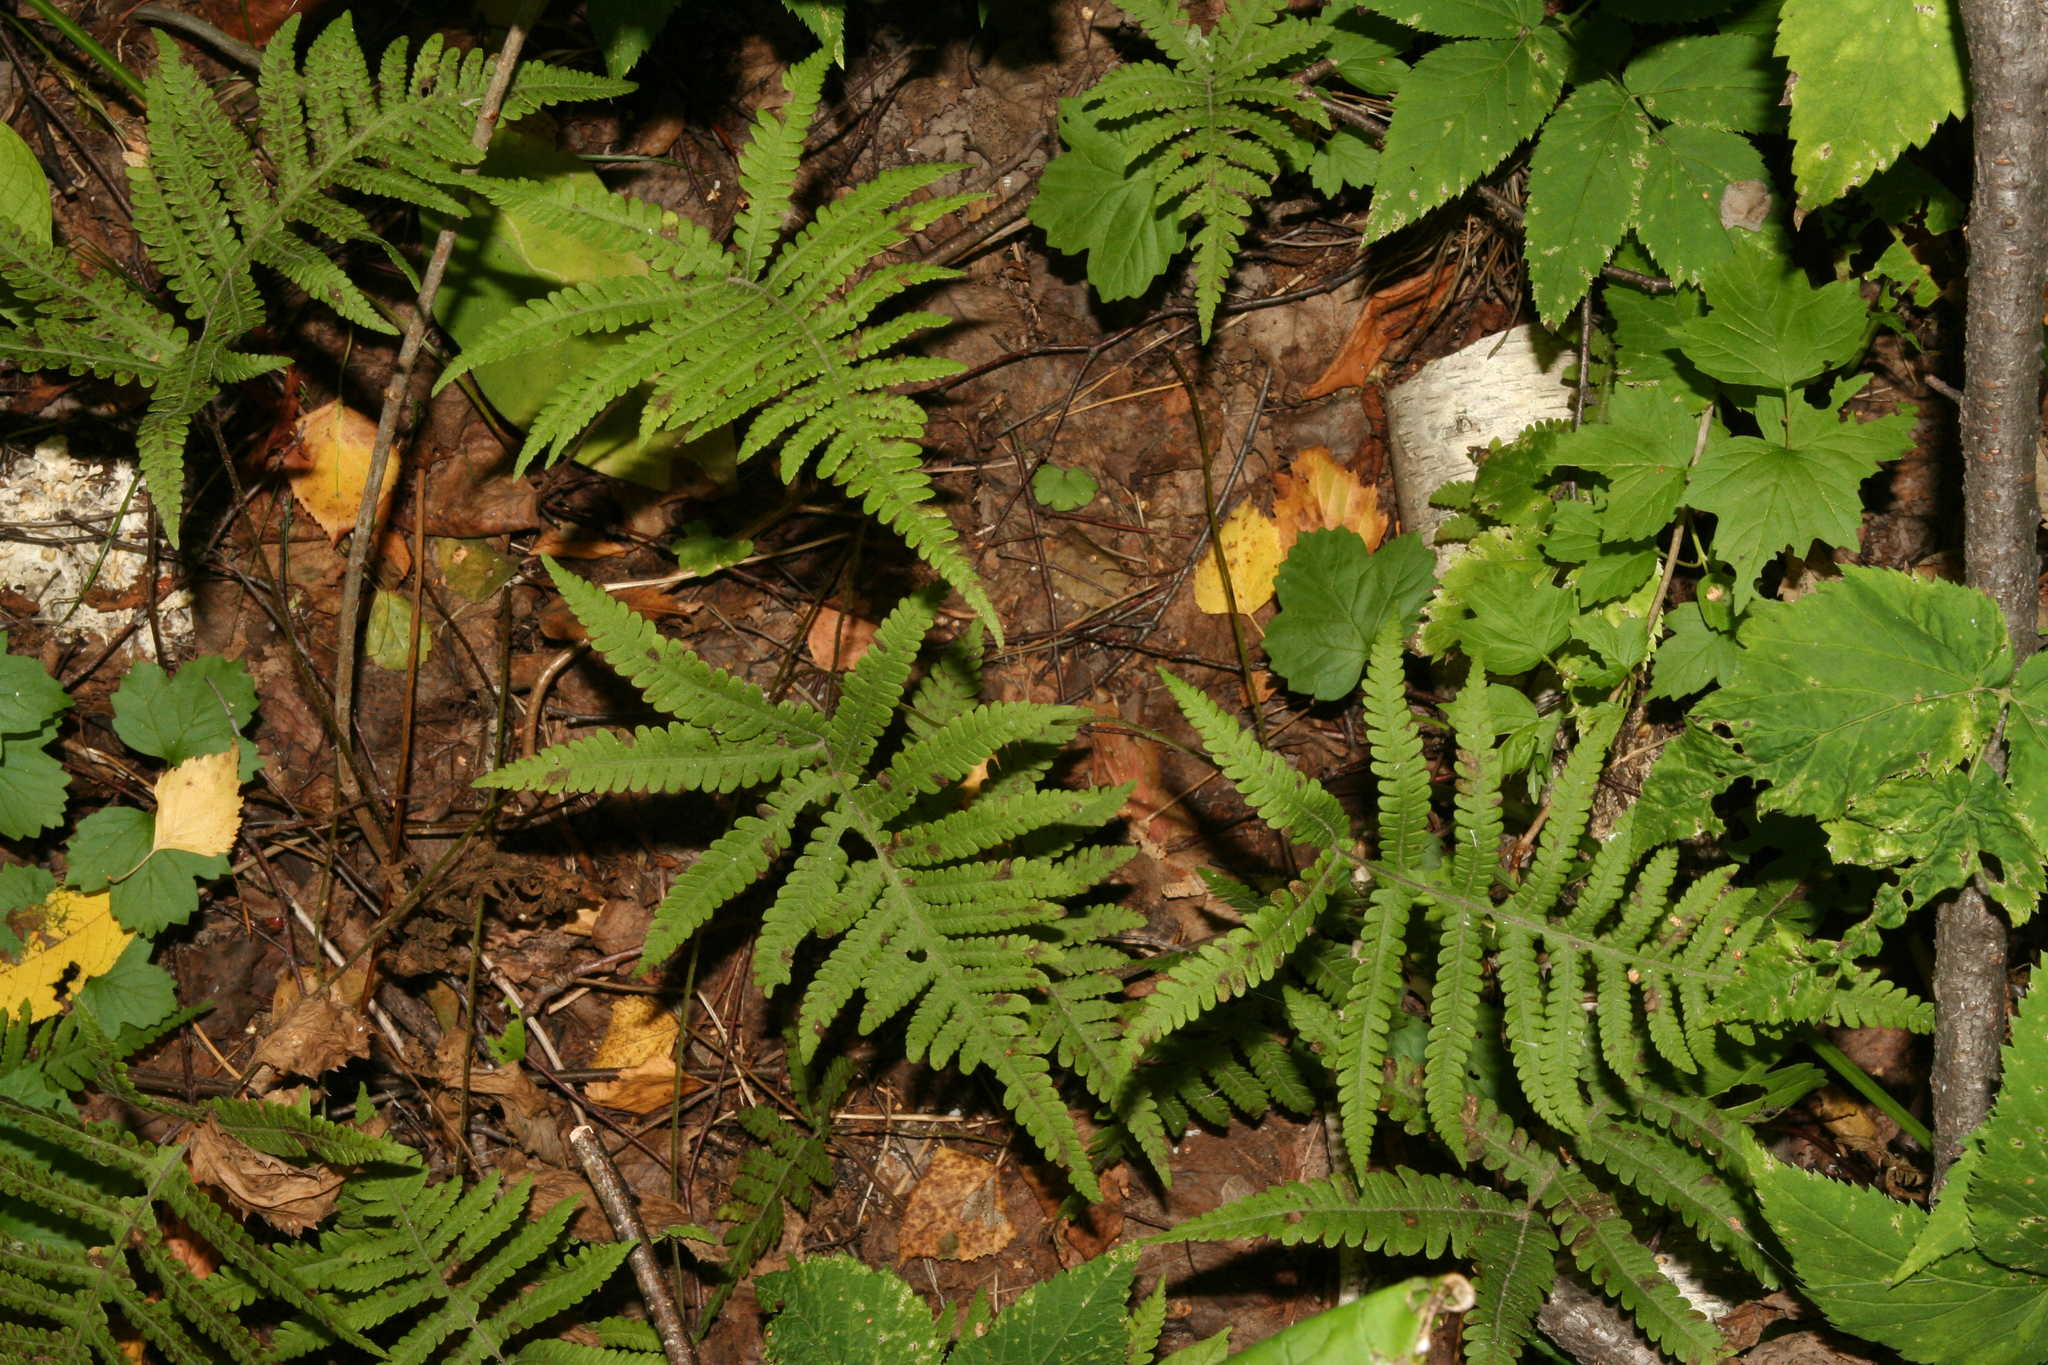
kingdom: Plantae
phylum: Tracheophyta
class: Polypodiopsida
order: Polypodiales
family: Thelypteridaceae
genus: Phegopteris
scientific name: Phegopteris connectilis
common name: Beech fern
